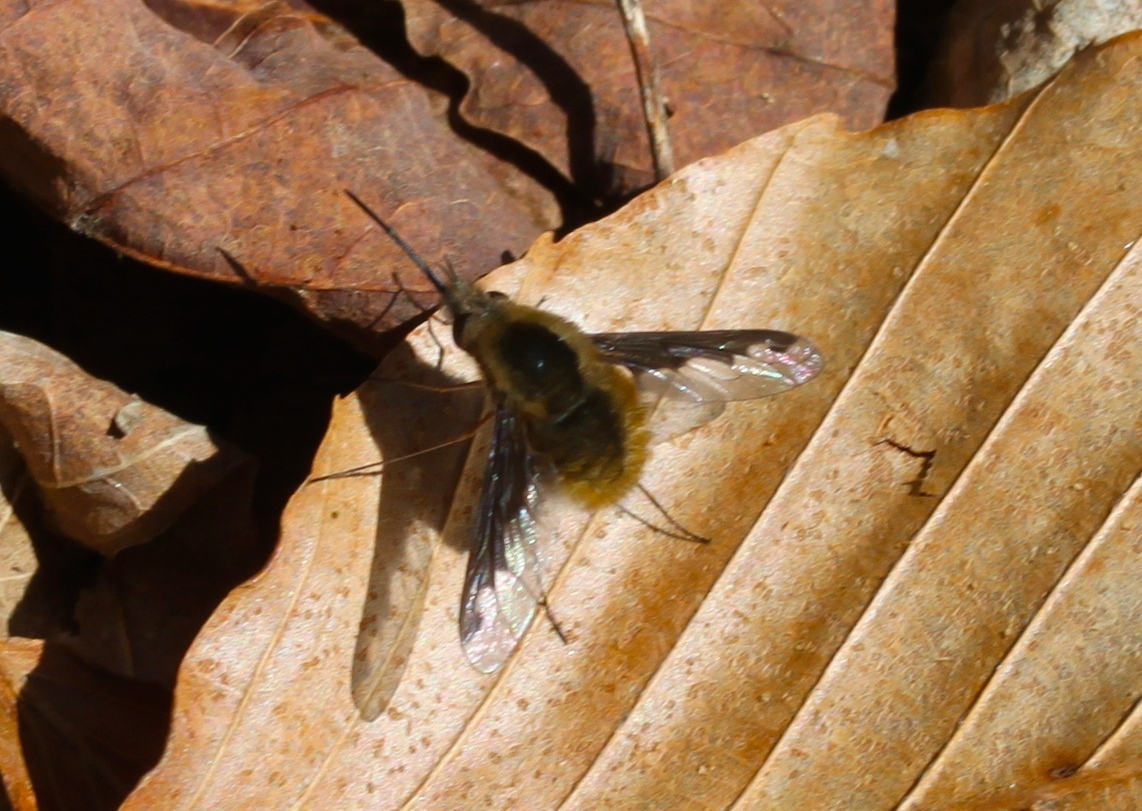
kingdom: Animalia
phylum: Arthropoda
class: Insecta
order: Diptera
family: Bombyliidae
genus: Bombylius
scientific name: Bombylius major
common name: Bee fly
